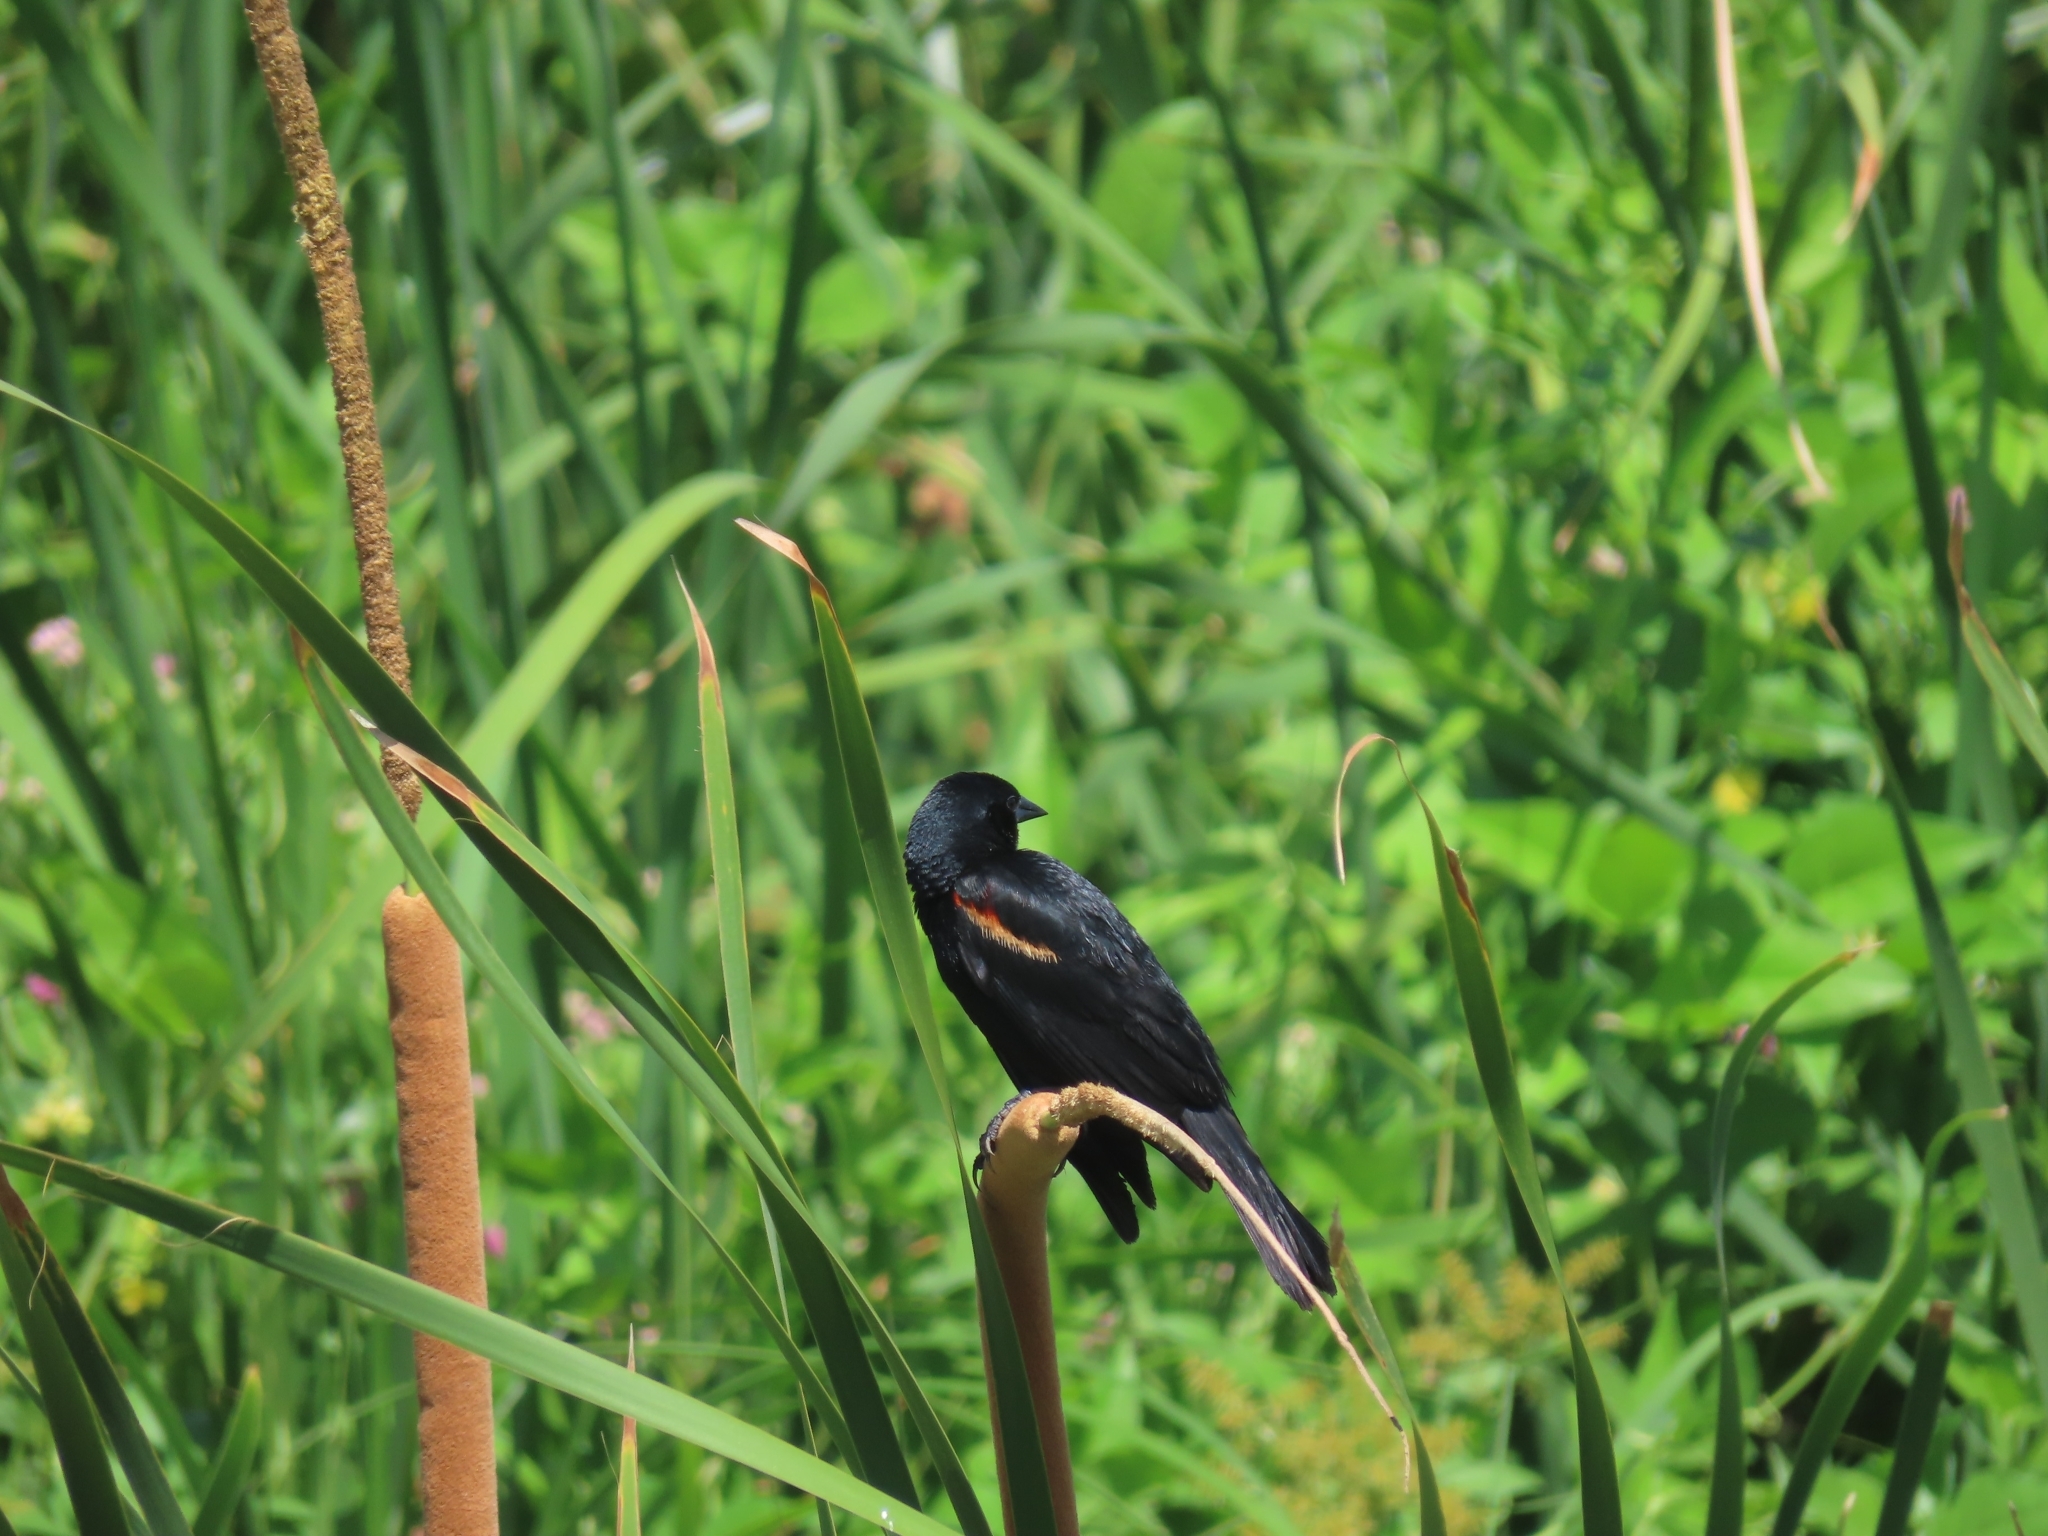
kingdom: Animalia
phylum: Chordata
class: Aves
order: Passeriformes
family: Icteridae
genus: Agelaius
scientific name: Agelaius phoeniceus
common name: Red-winged blackbird
